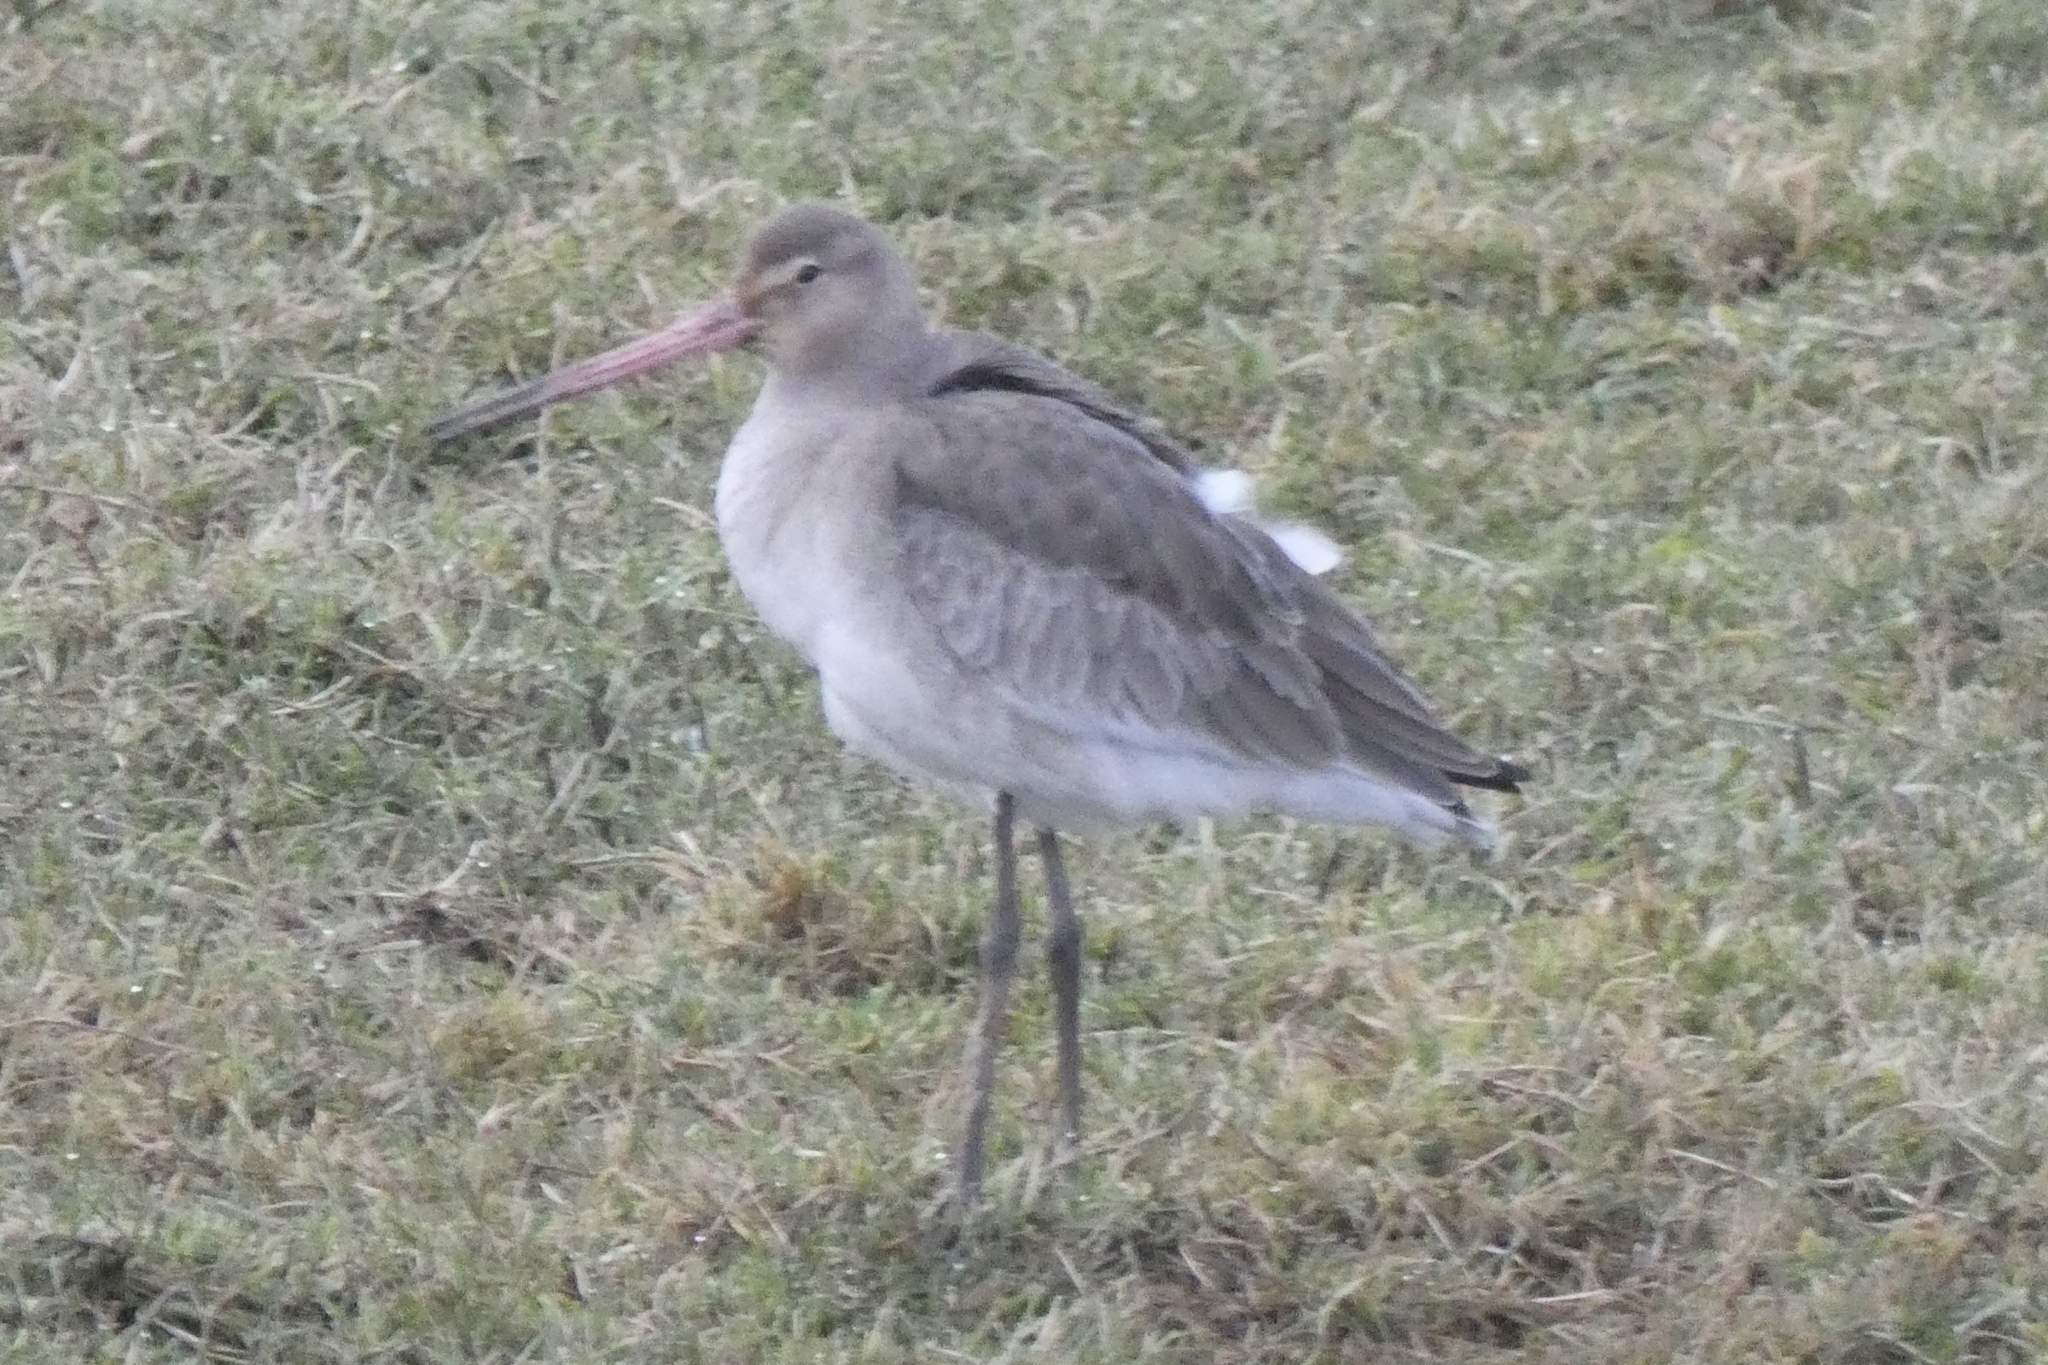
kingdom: Animalia
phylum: Chordata
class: Aves
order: Charadriiformes
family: Scolopacidae
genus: Limosa
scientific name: Limosa limosa
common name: Black-tailed godwit
